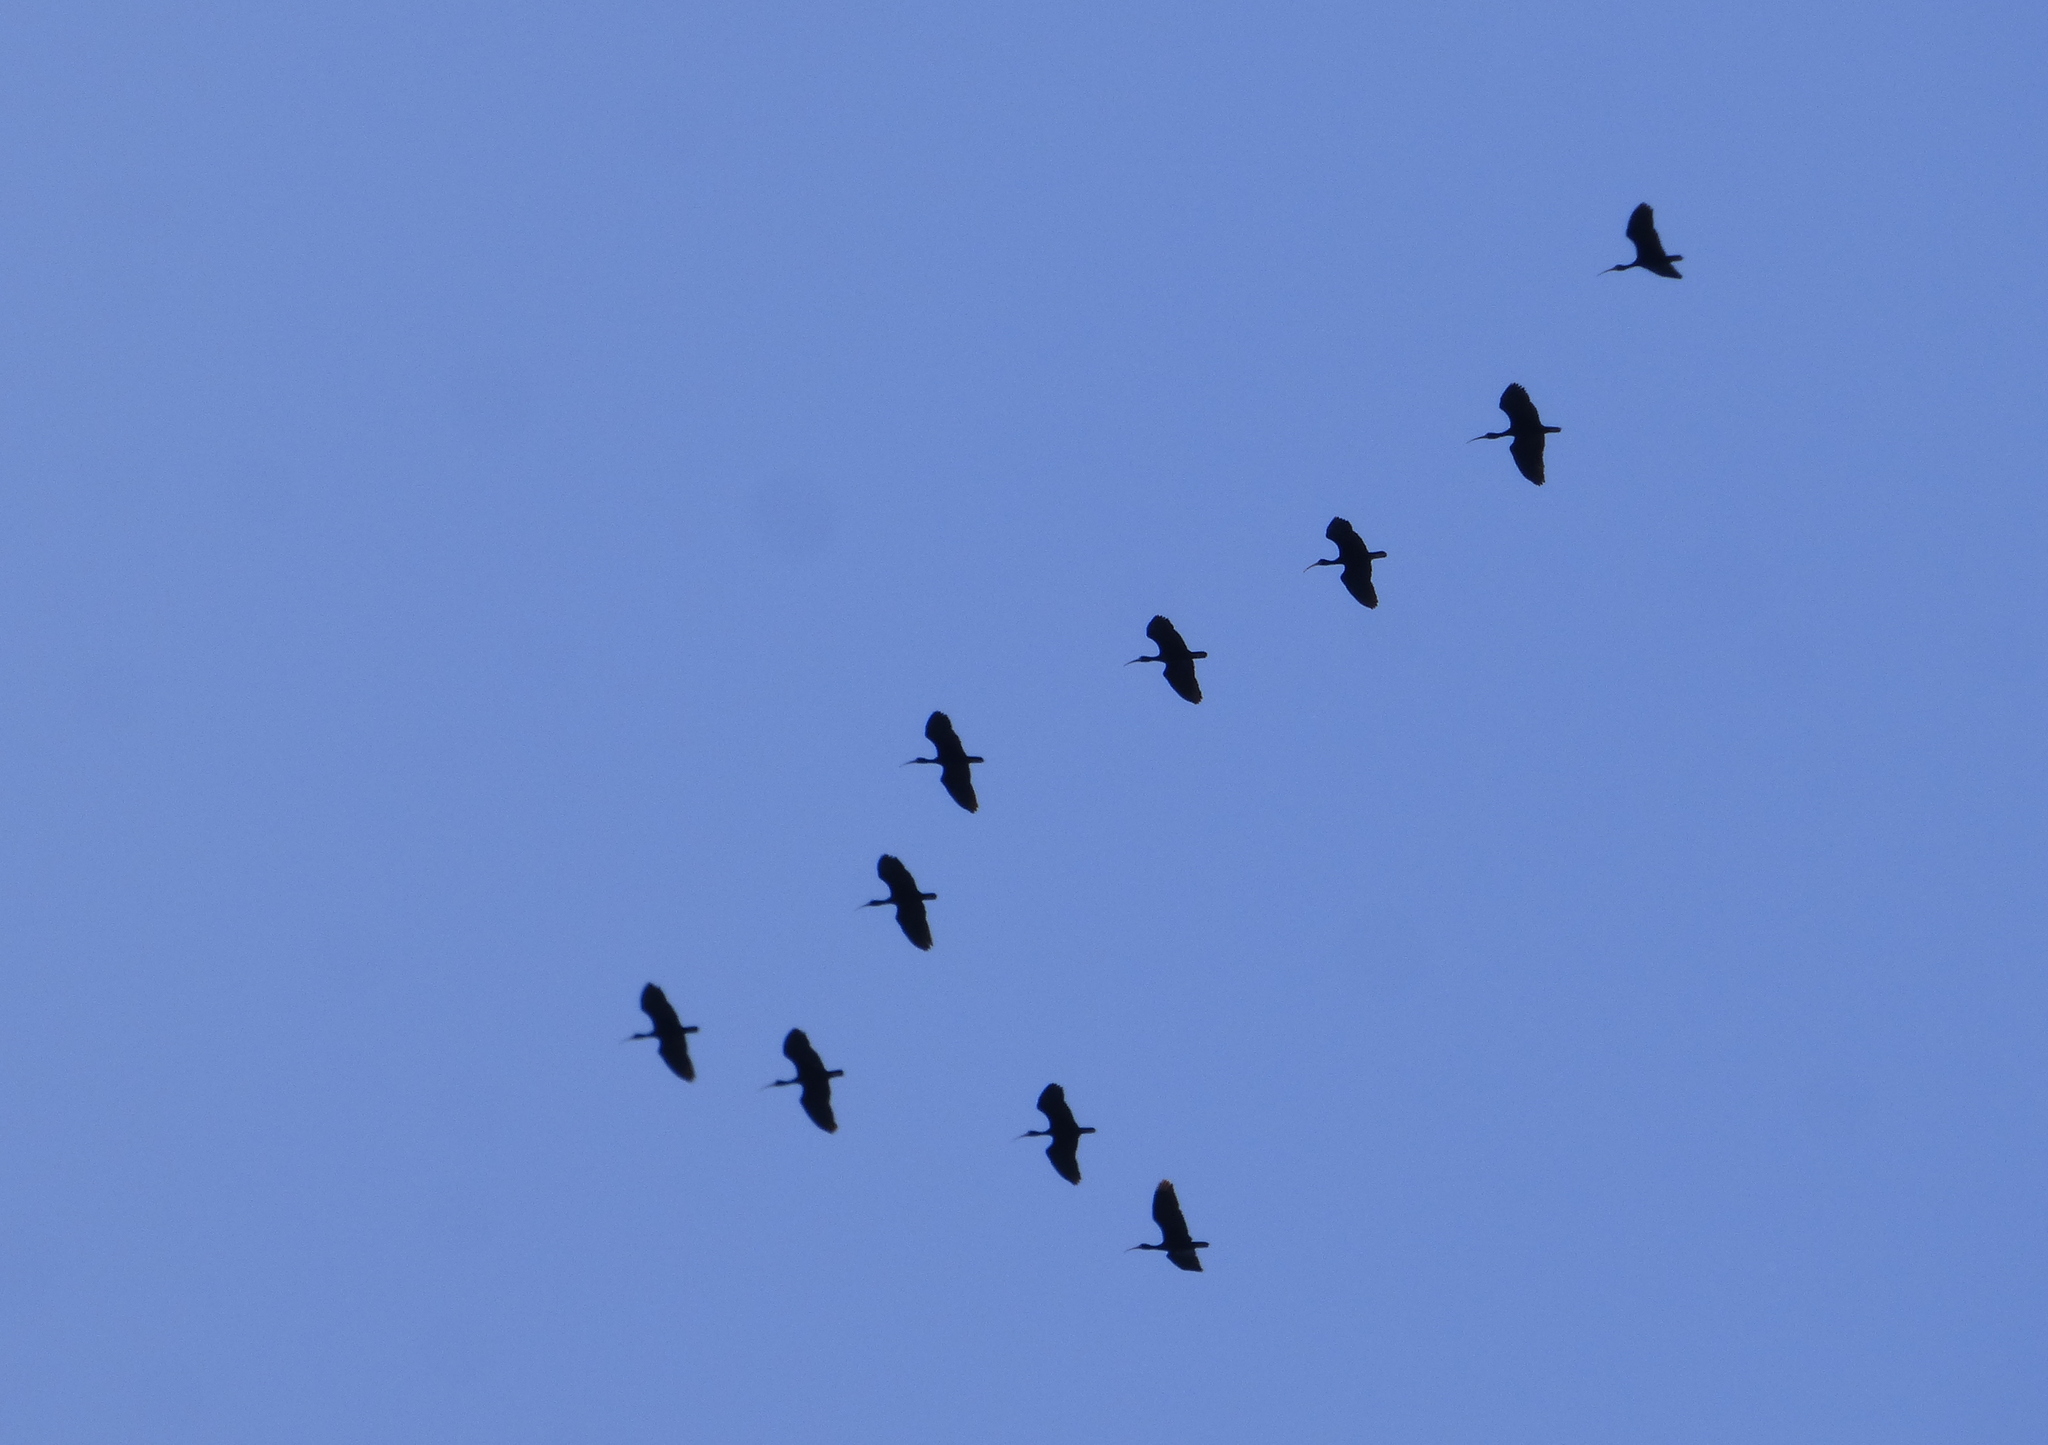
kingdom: Animalia
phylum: Chordata
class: Aves
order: Pelecaniformes
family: Threskiornithidae
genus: Phimosus
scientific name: Phimosus infuscatus
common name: Bare-faced ibis
